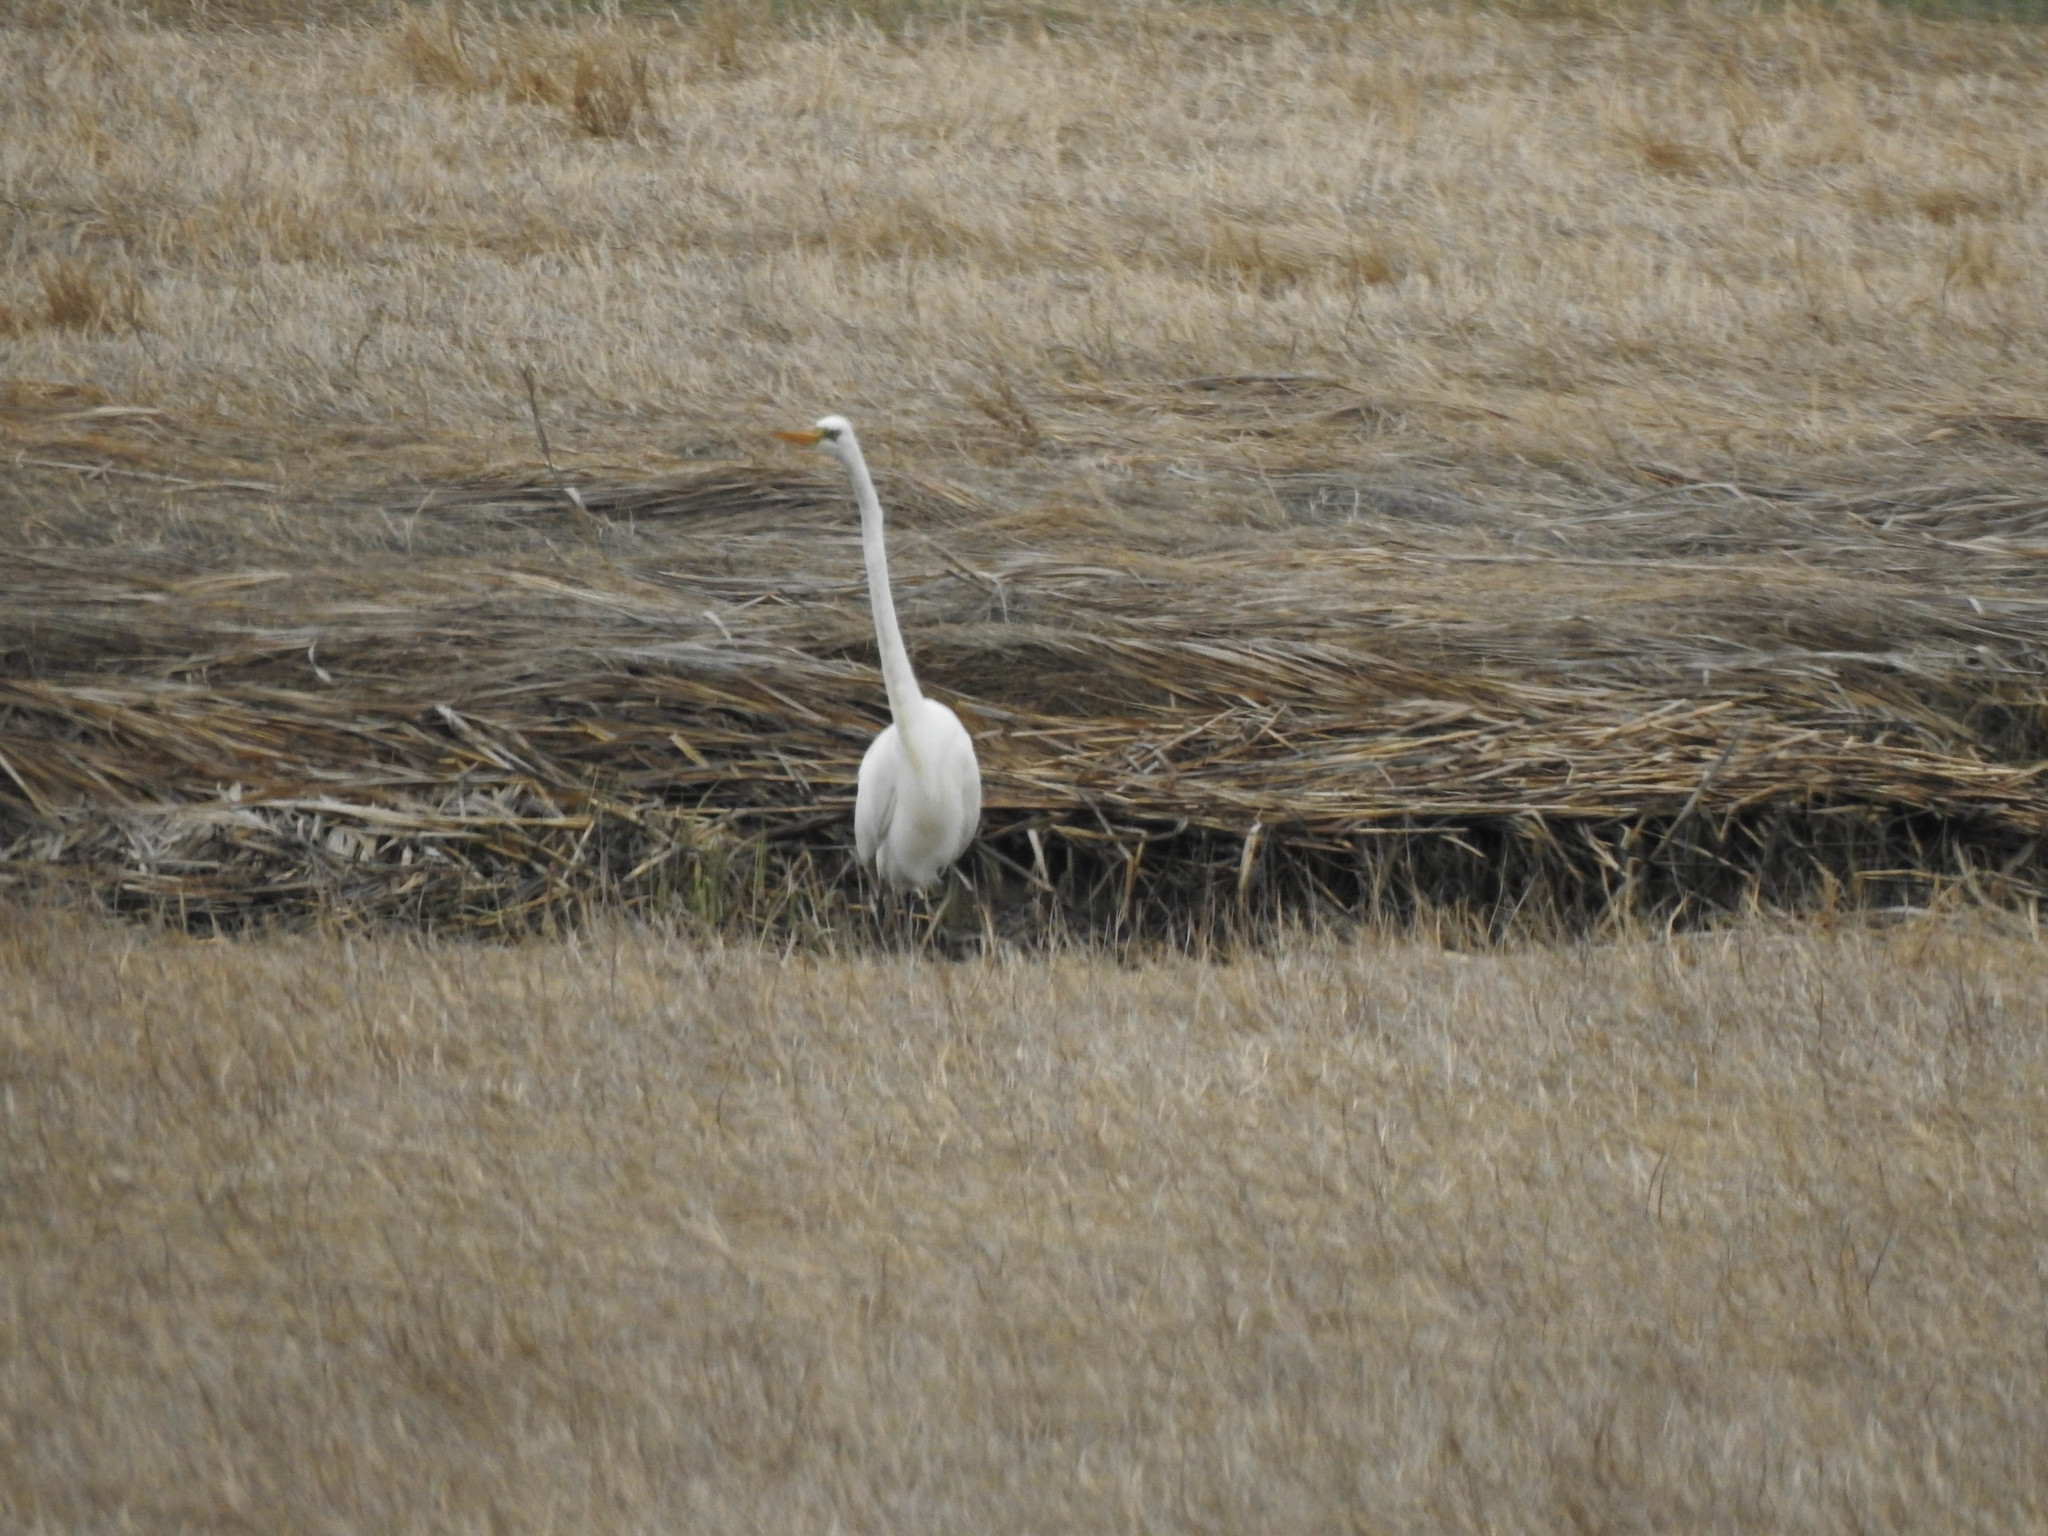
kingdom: Animalia
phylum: Chordata
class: Aves
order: Pelecaniformes
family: Ardeidae
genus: Ardea
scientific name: Ardea alba
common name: Great egret
